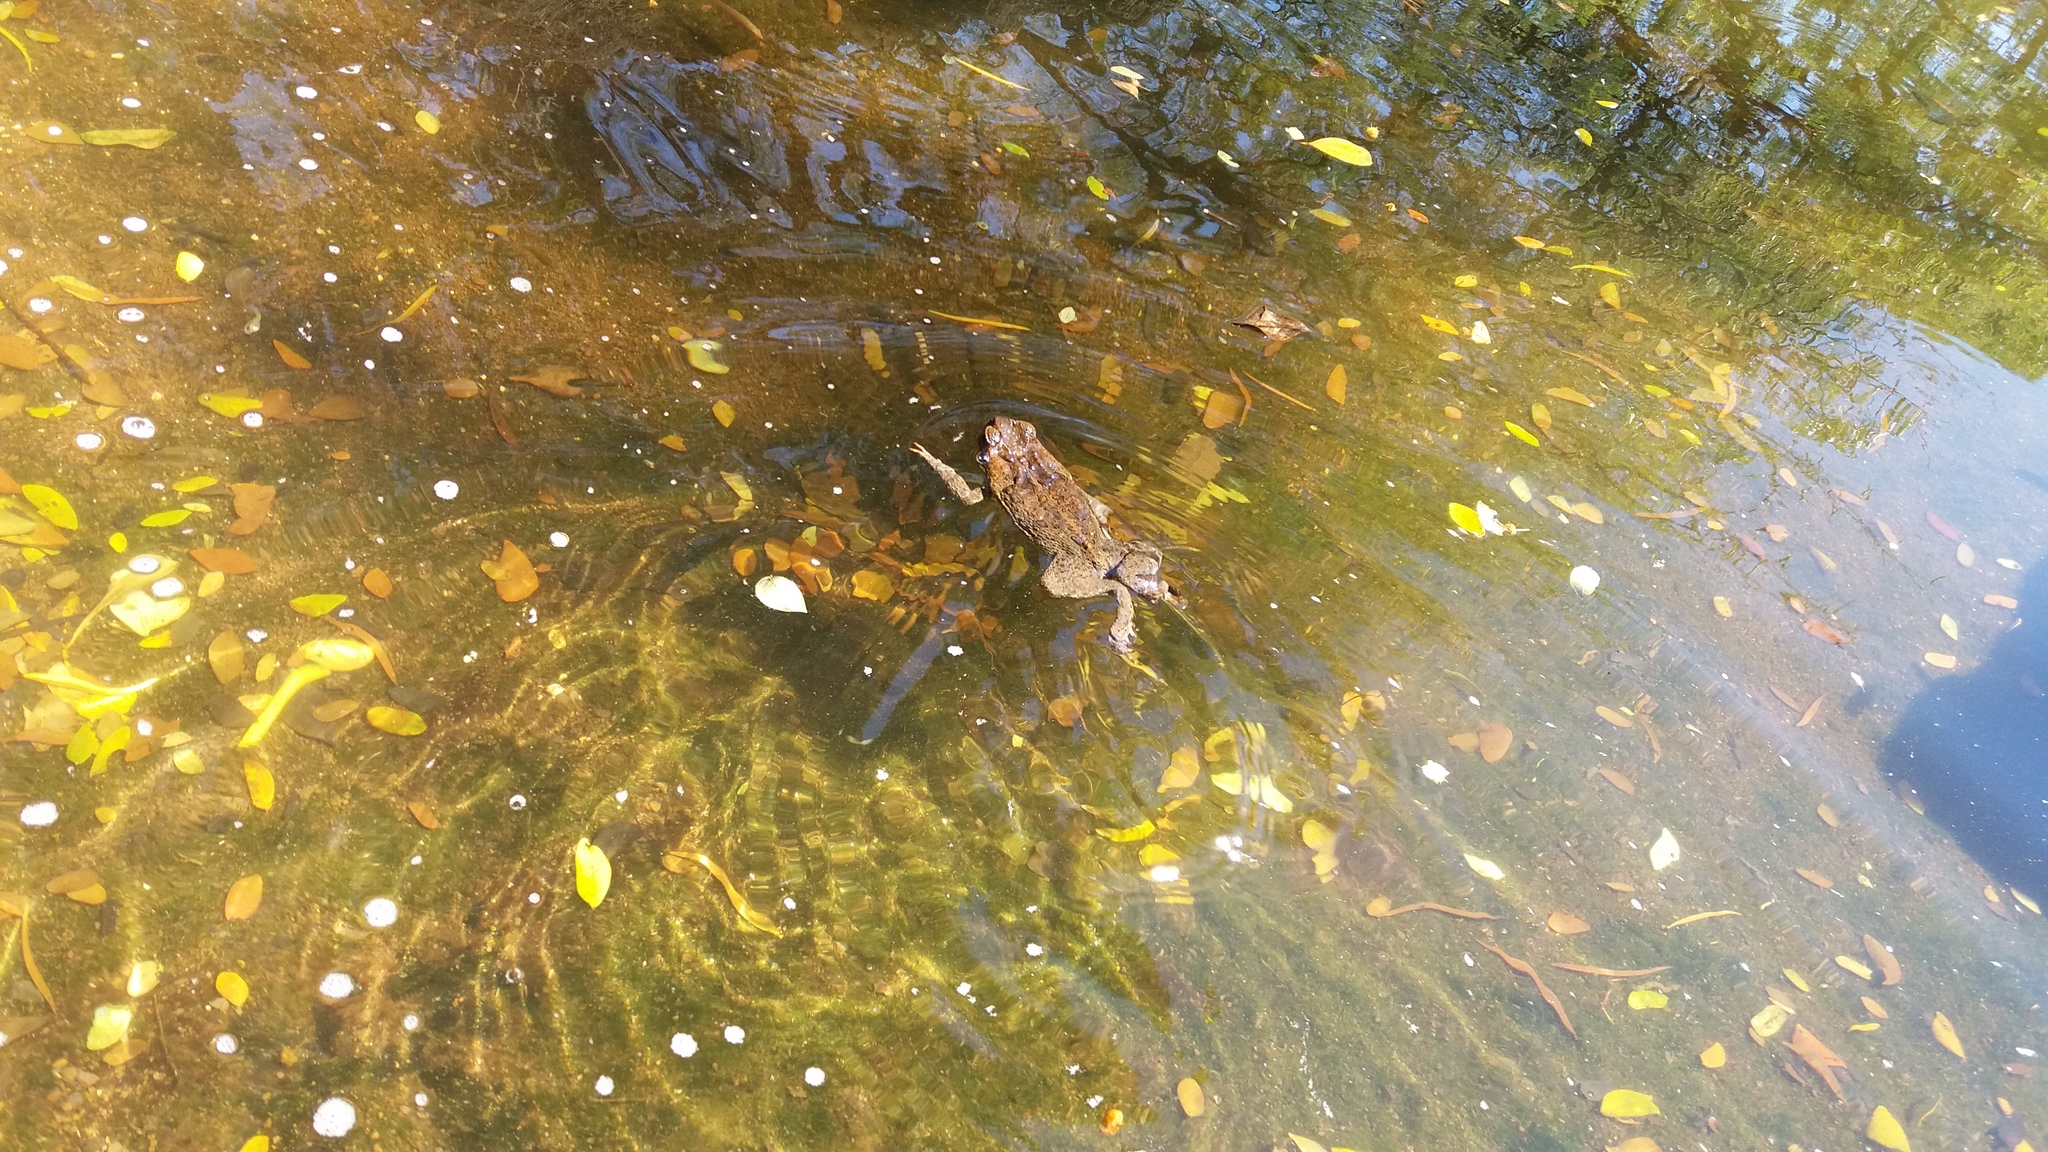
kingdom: Animalia
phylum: Chordata
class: Amphibia
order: Anura
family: Bufonidae
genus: Rhinella
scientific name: Rhinella marina
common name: Cane toad
